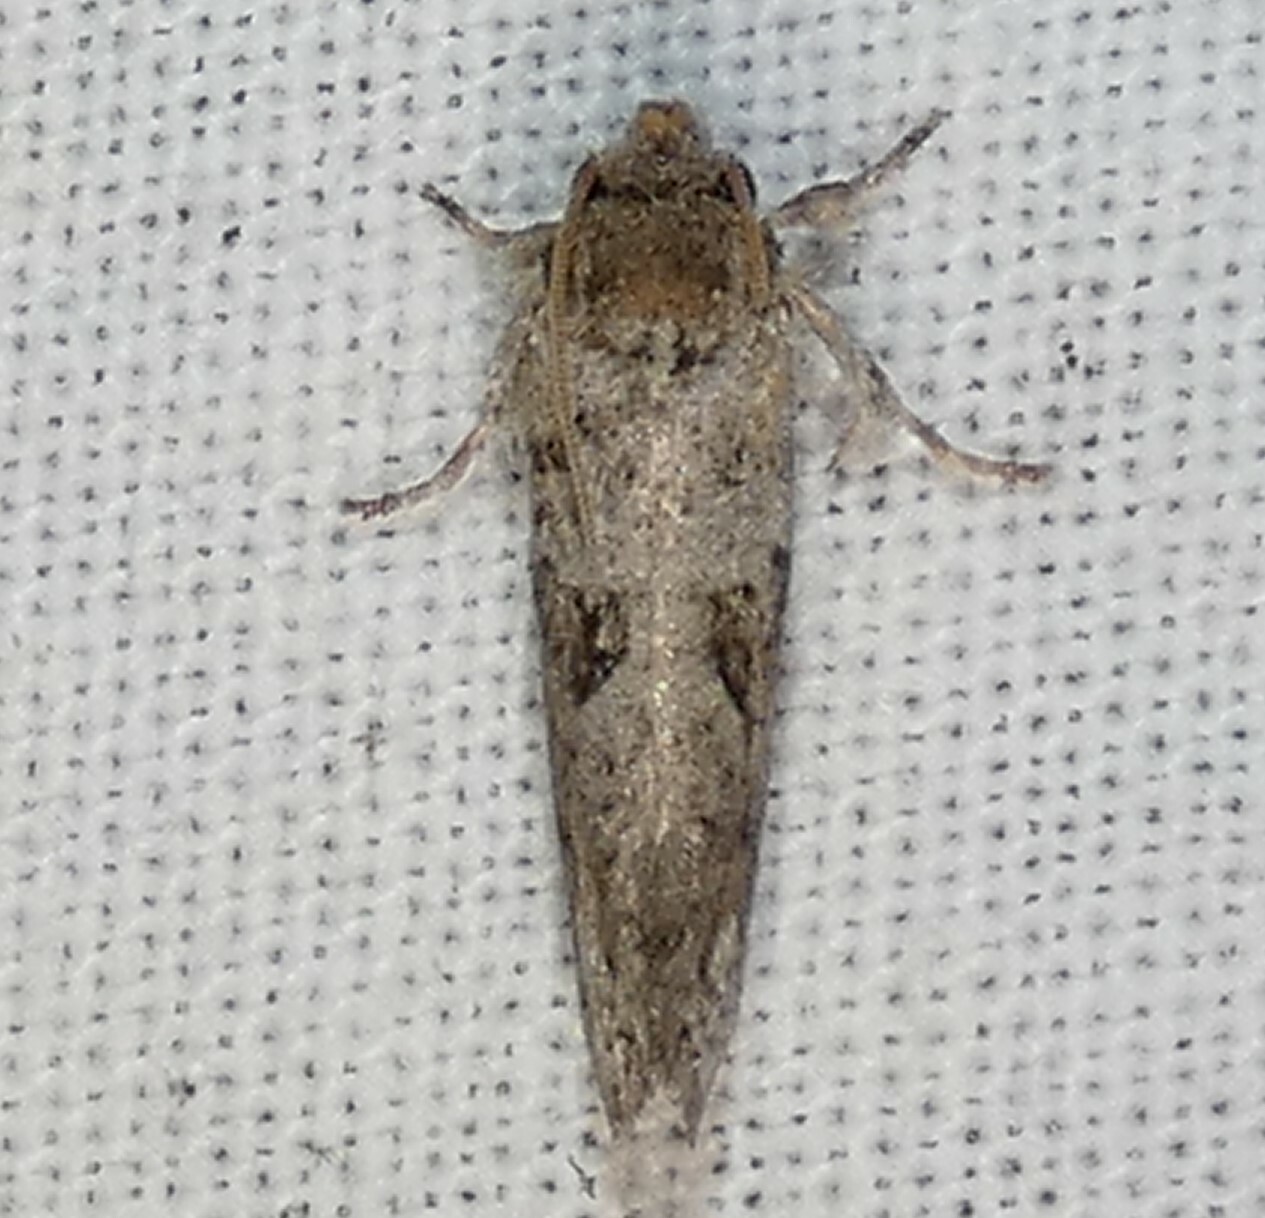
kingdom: Animalia
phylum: Arthropoda
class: Insecta
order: Lepidoptera
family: Tineidae
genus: Acrolophus
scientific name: Acrolophus piger
